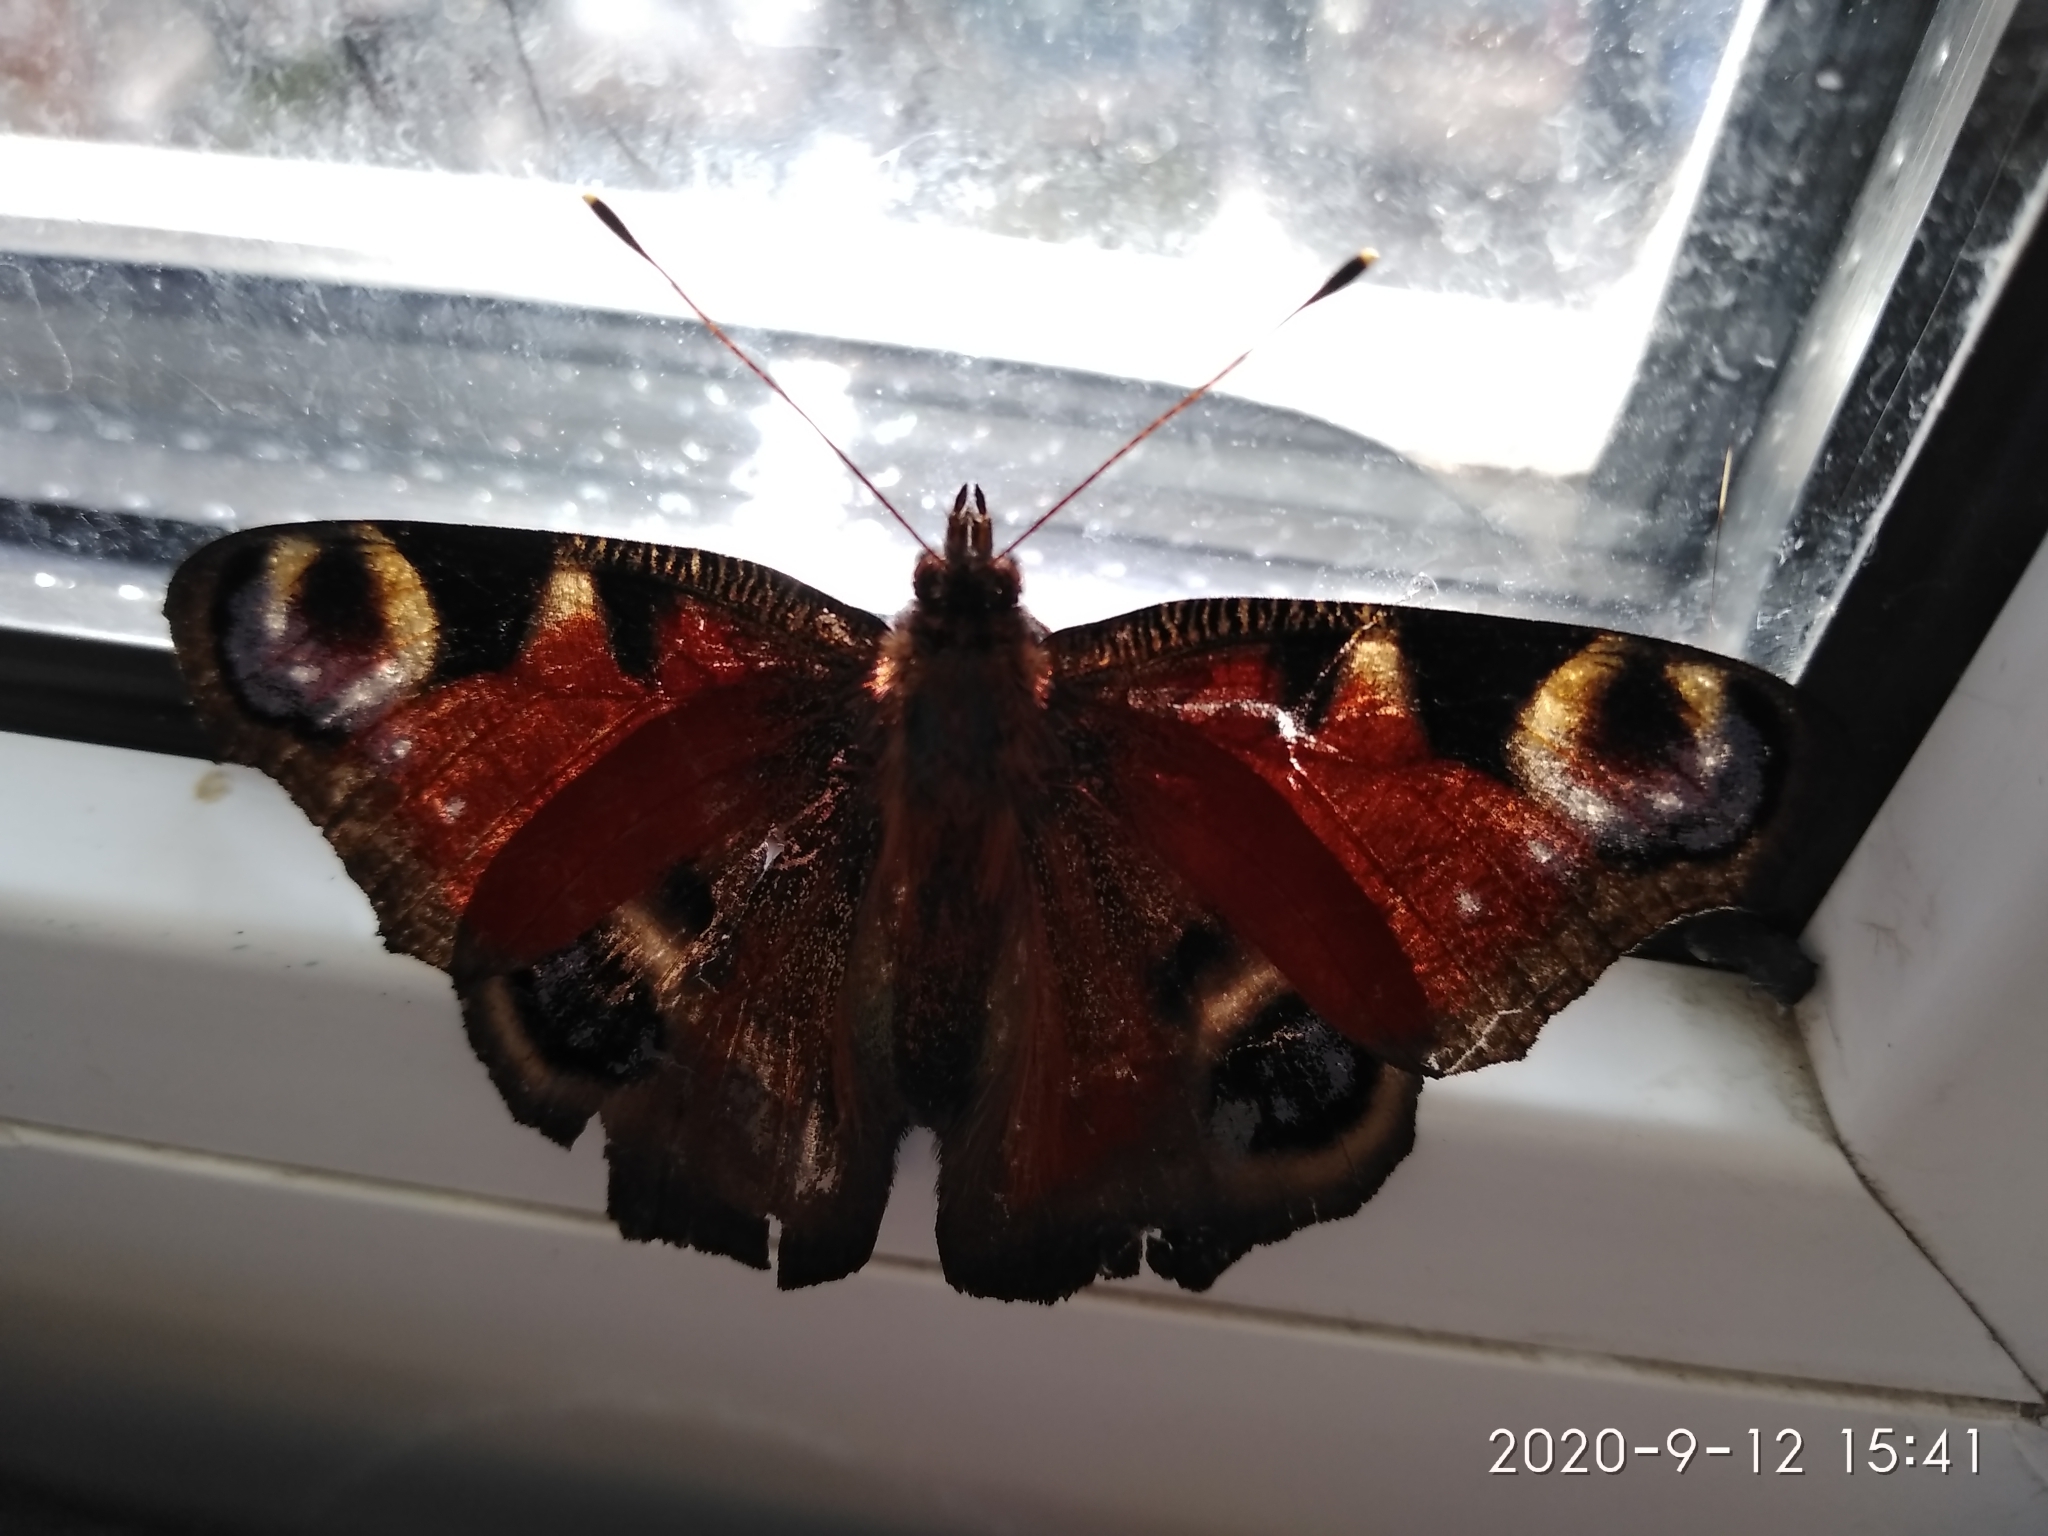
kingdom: Animalia
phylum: Arthropoda
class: Insecta
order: Lepidoptera
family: Nymphalidae
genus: Aglais
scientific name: Aglais io
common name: Peacock
